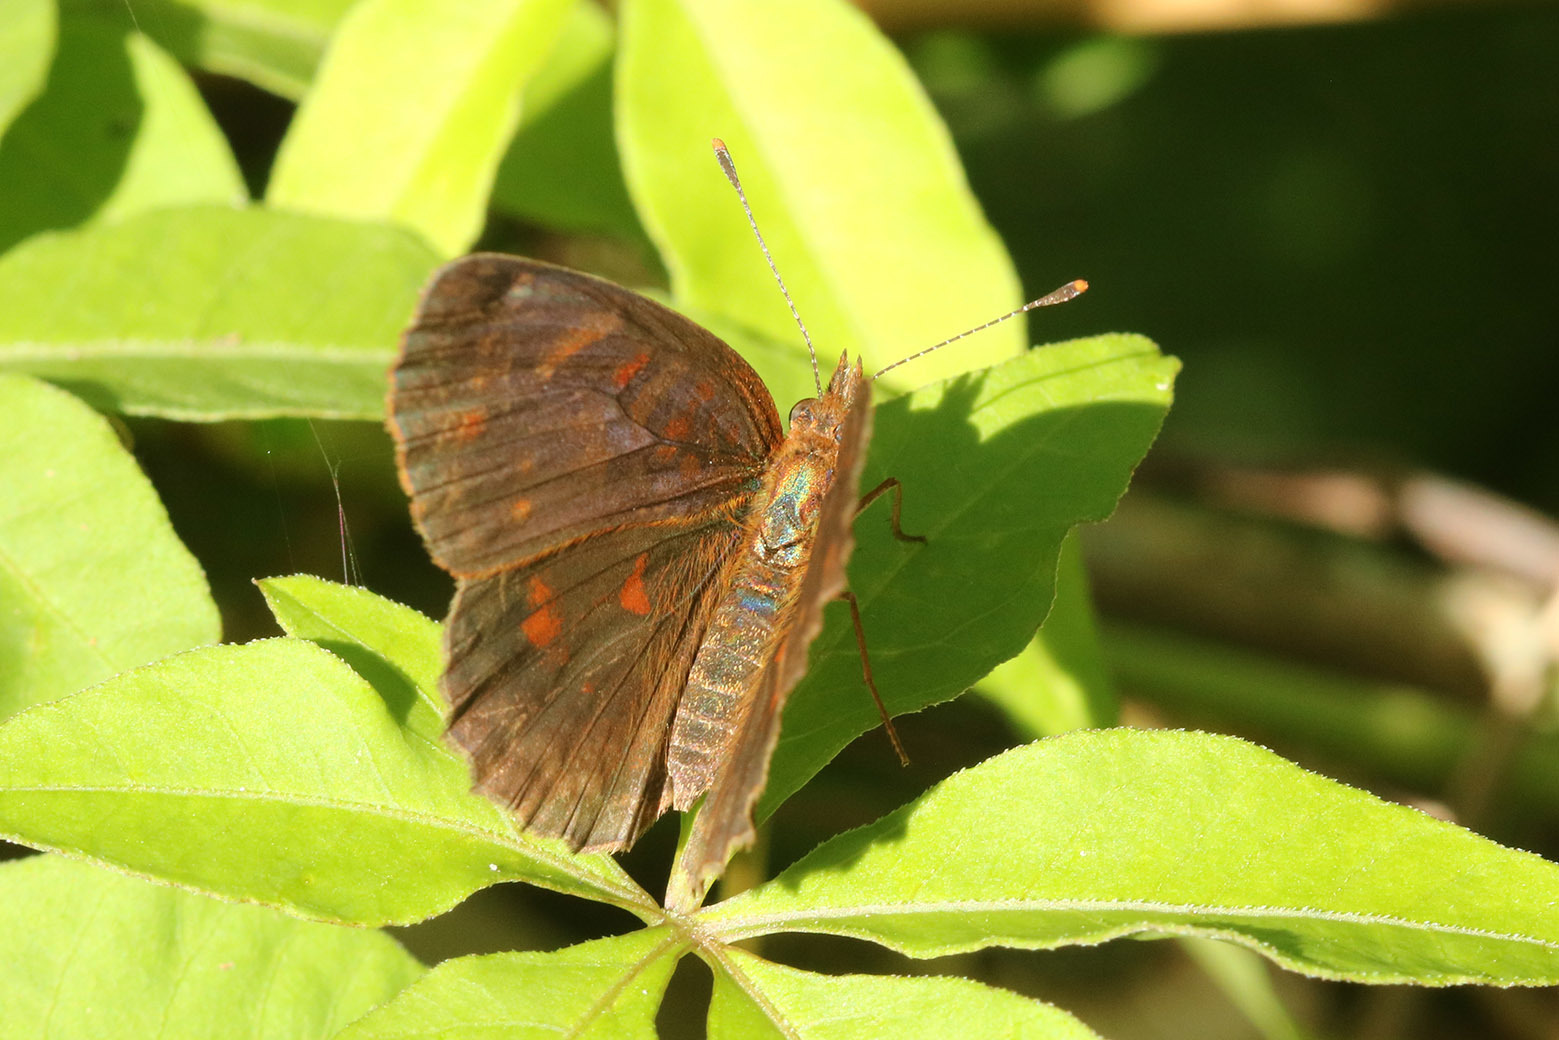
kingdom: Animalia
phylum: Arthropoda
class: Insecta
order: Lepidoptera
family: Nymphalidae
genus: Ortilia
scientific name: Ortilia velica
